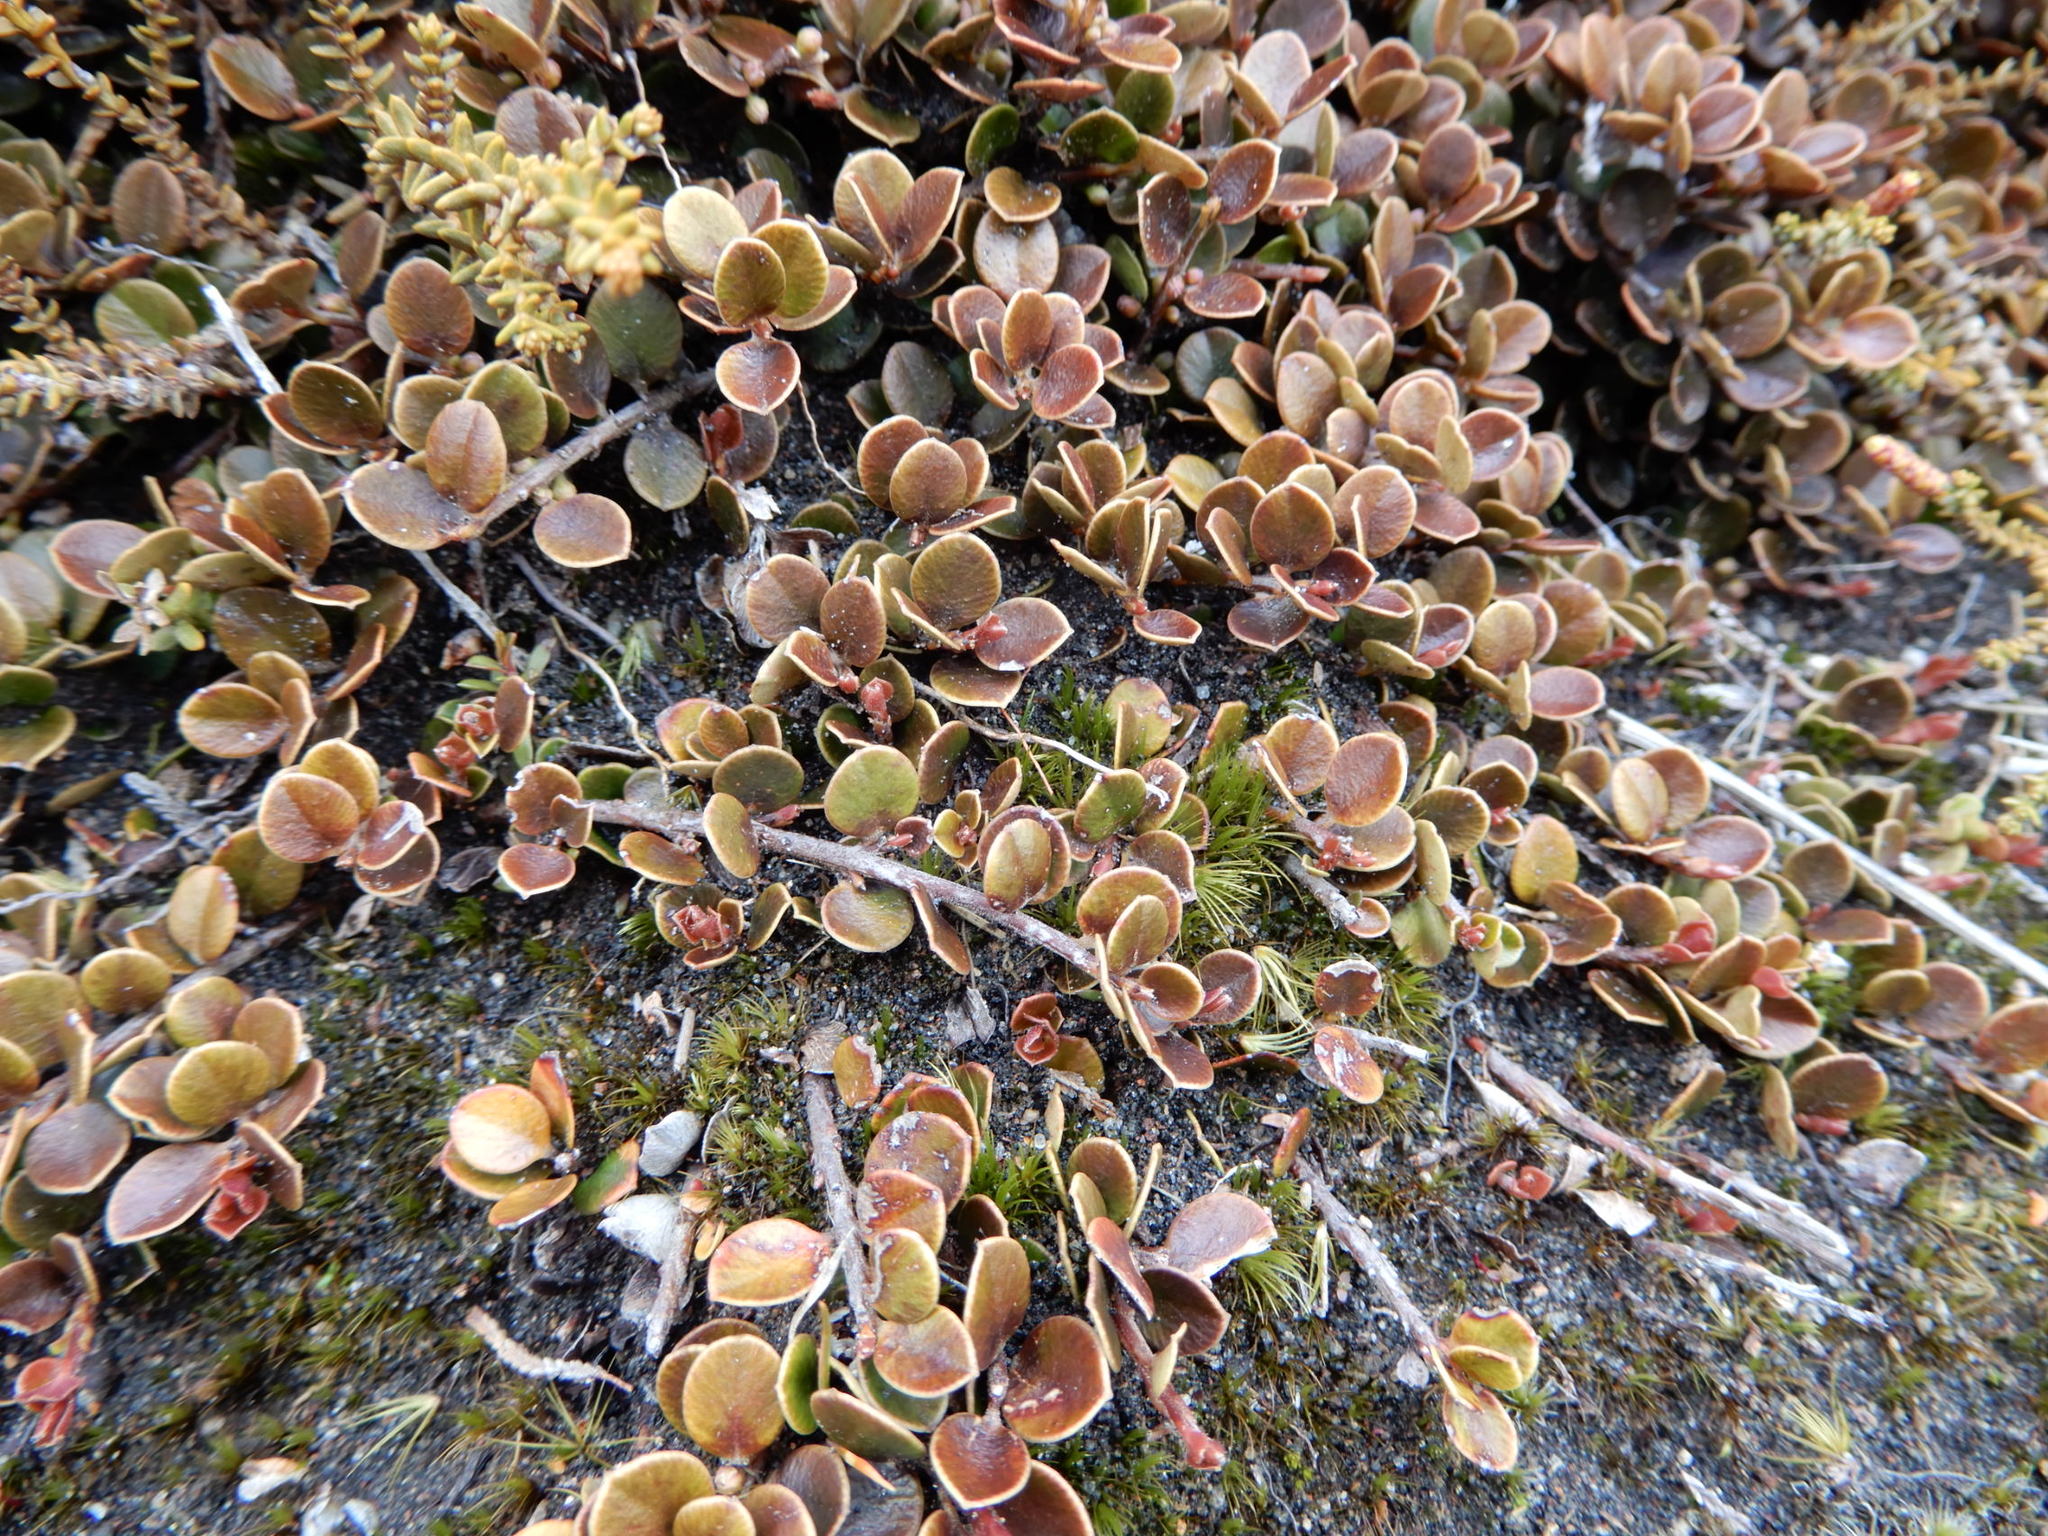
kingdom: Plantae
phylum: Tracheophyta
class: Magnoliopsida
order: Ericales
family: Primulaceae
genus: Myrsine
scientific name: Myrsine nummularia
